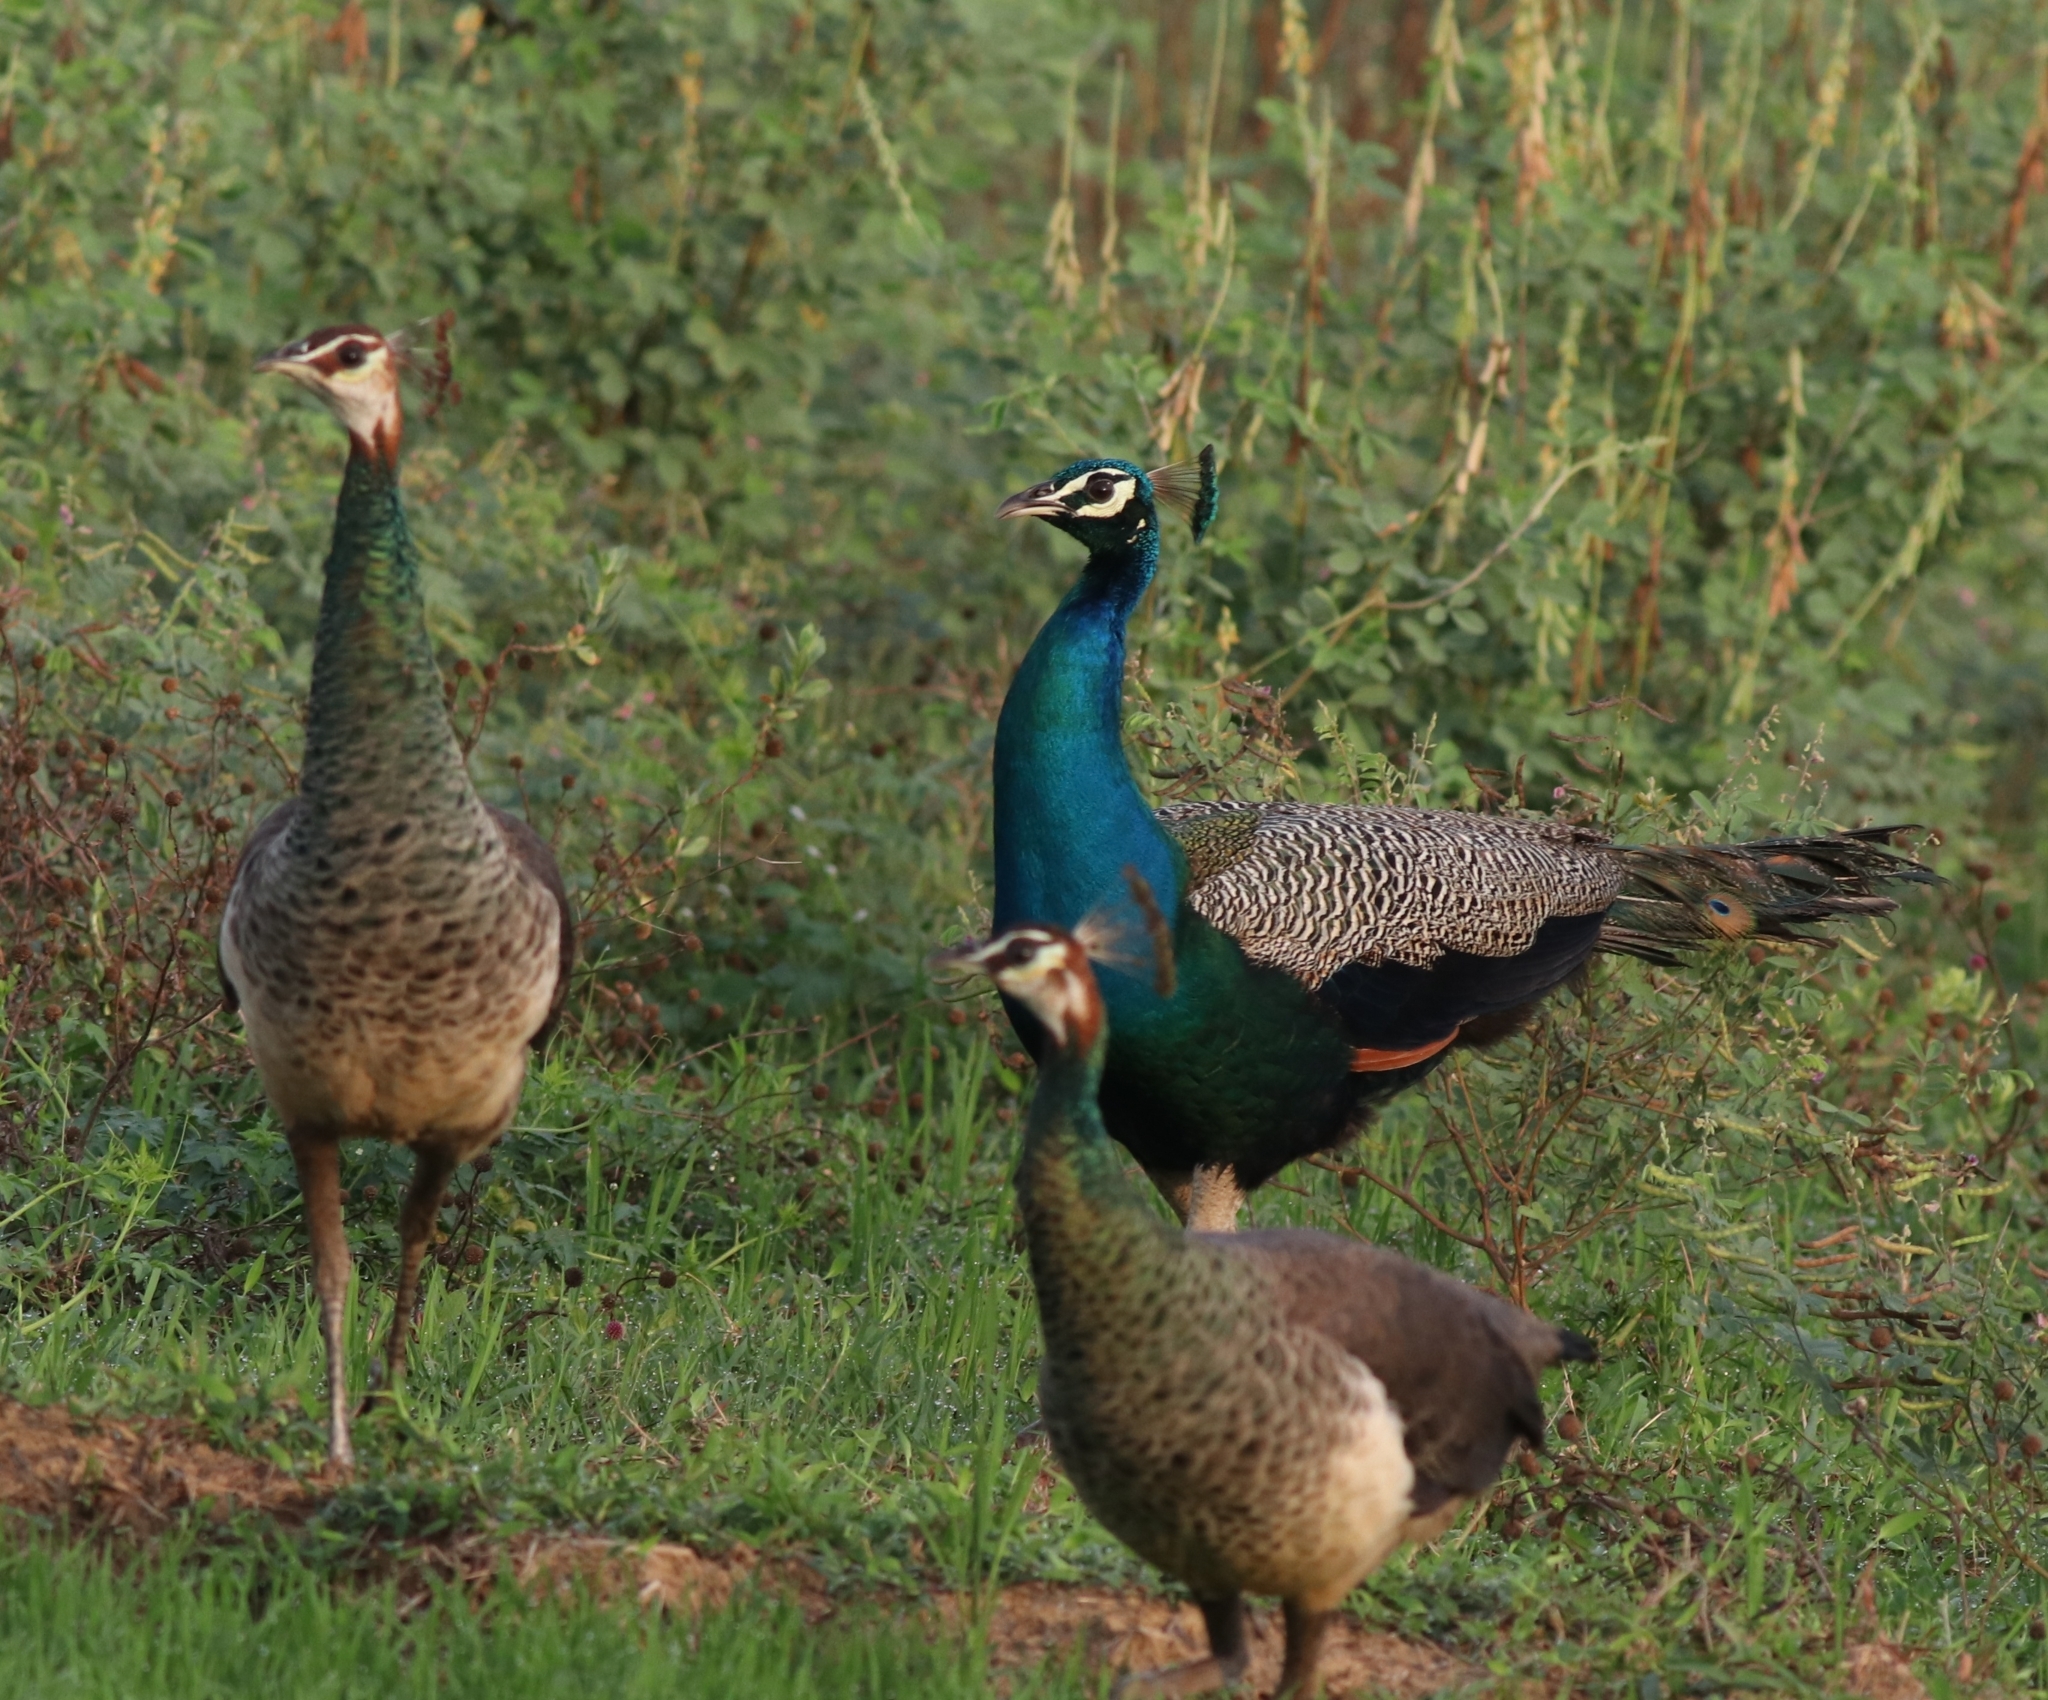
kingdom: Animalia
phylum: Chordata
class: Aves
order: Galliformes
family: Phasianidae
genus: Pavo
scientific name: Pavo cristatus
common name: Indian peafowl
